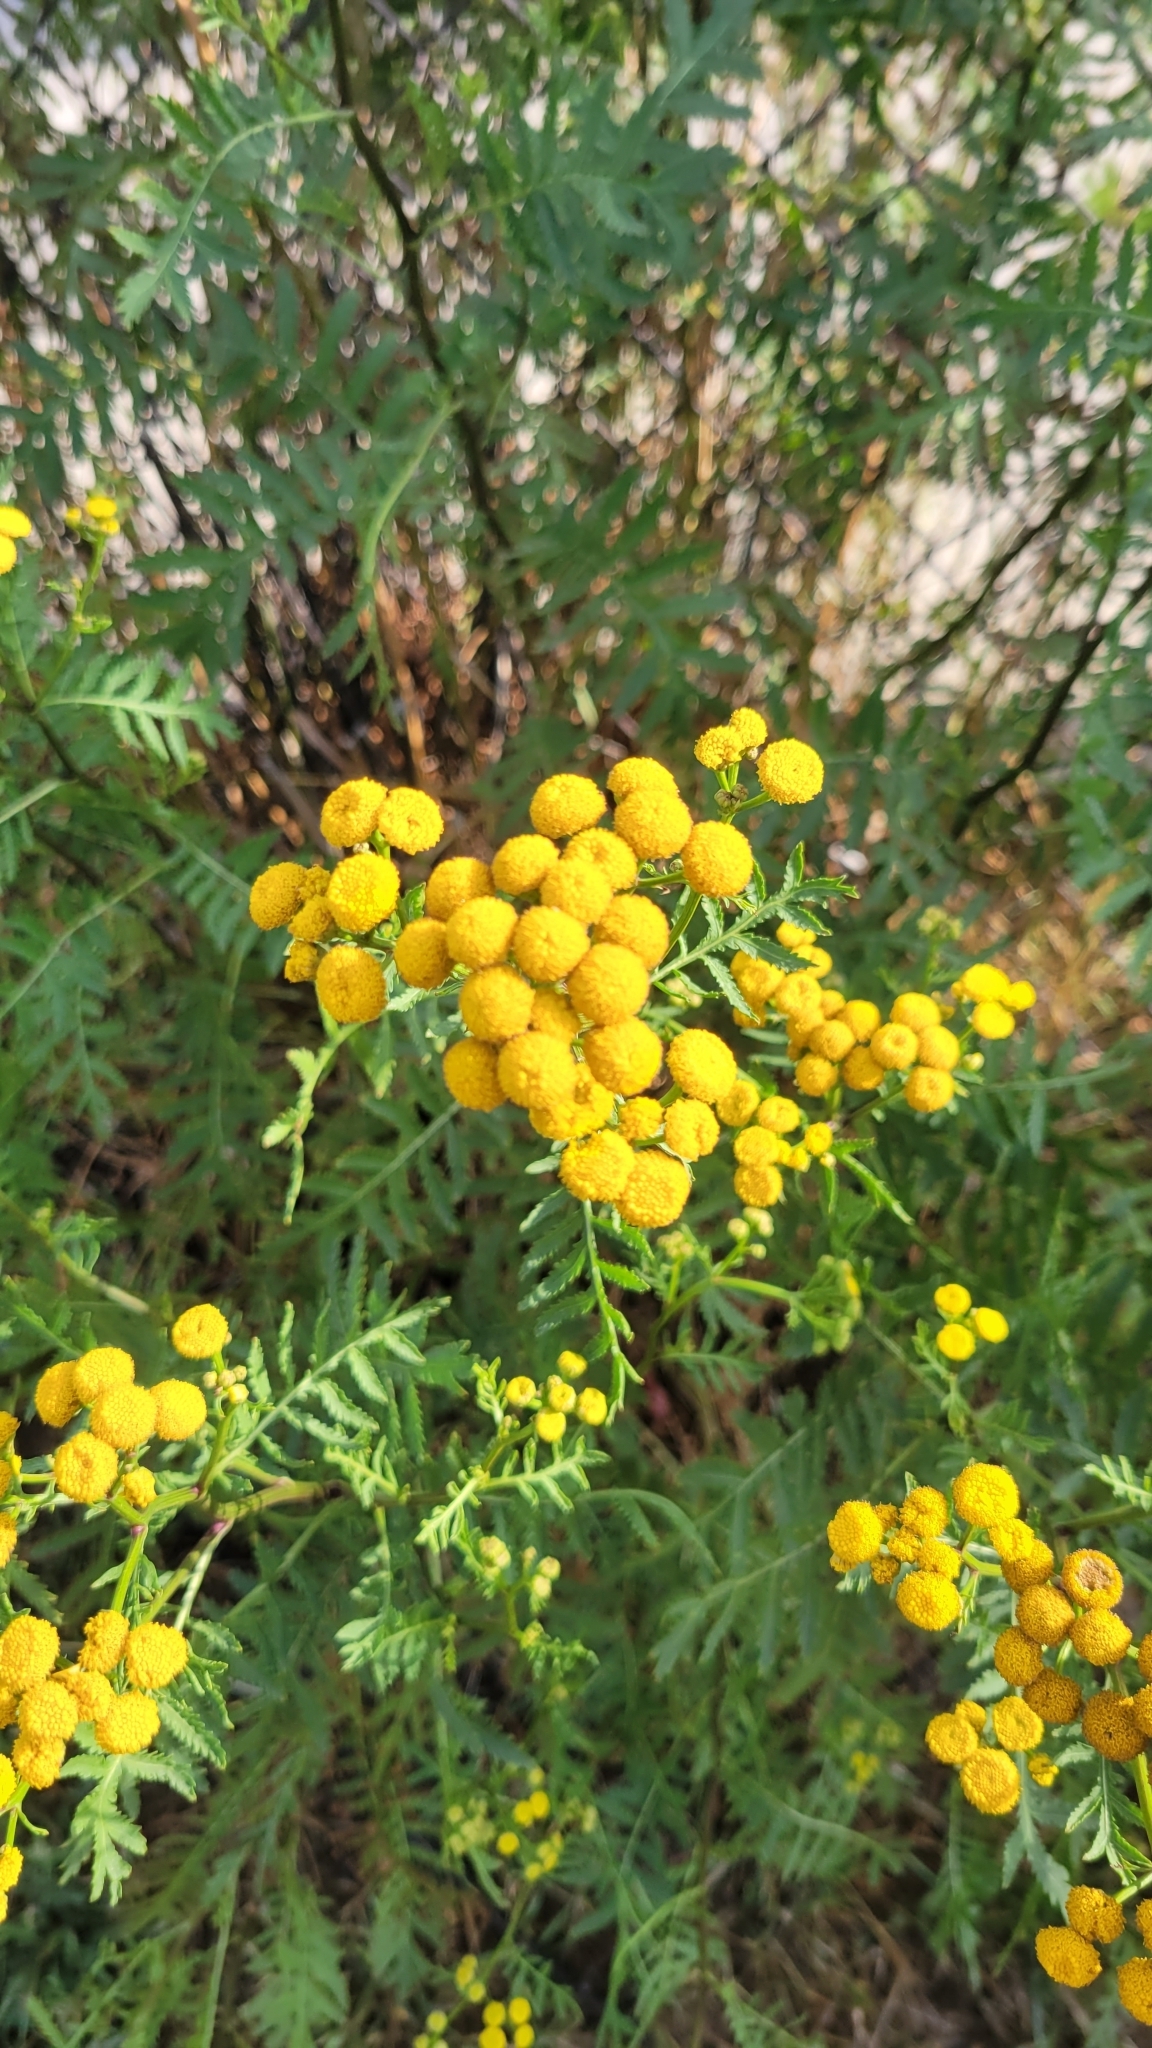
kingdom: Plantae
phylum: Tracheophyta
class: Magnoliopsida
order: Asterales
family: Asteraceae
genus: Tanacetum
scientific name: Tanacetum vulgare
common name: Common tansy
